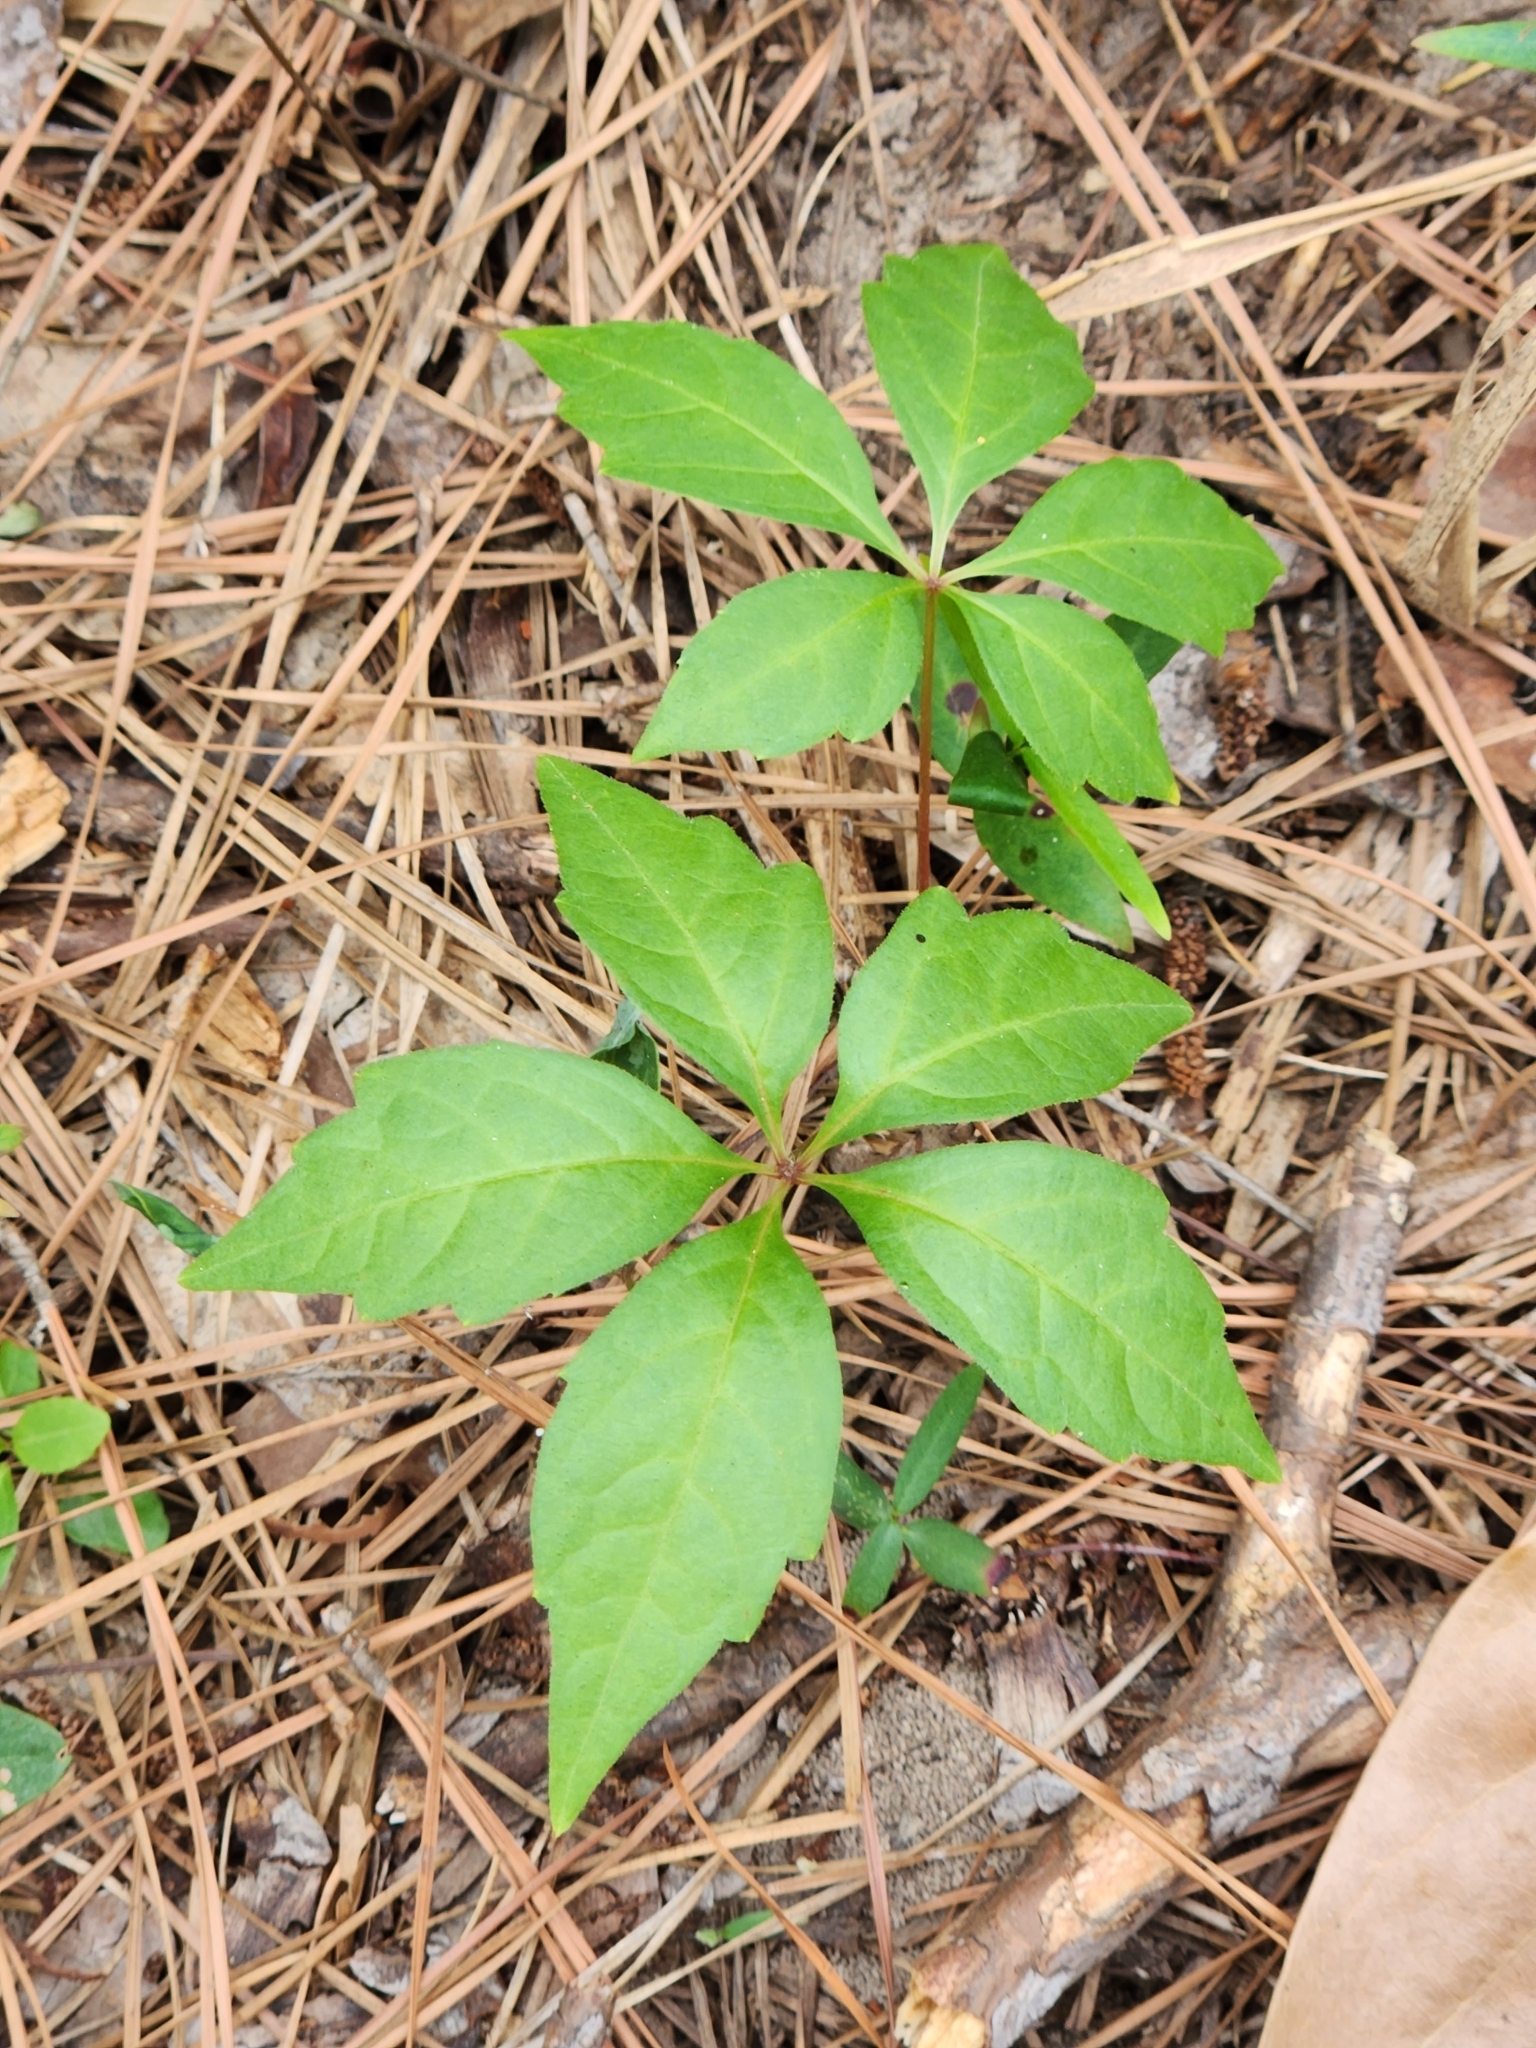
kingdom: Plantae
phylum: Tracheophyta
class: Magnoliopsida
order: Vitales
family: Vitaceae
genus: Parthenocissus
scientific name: Parthenocissus quinquefolia
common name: Virginia-creeper
